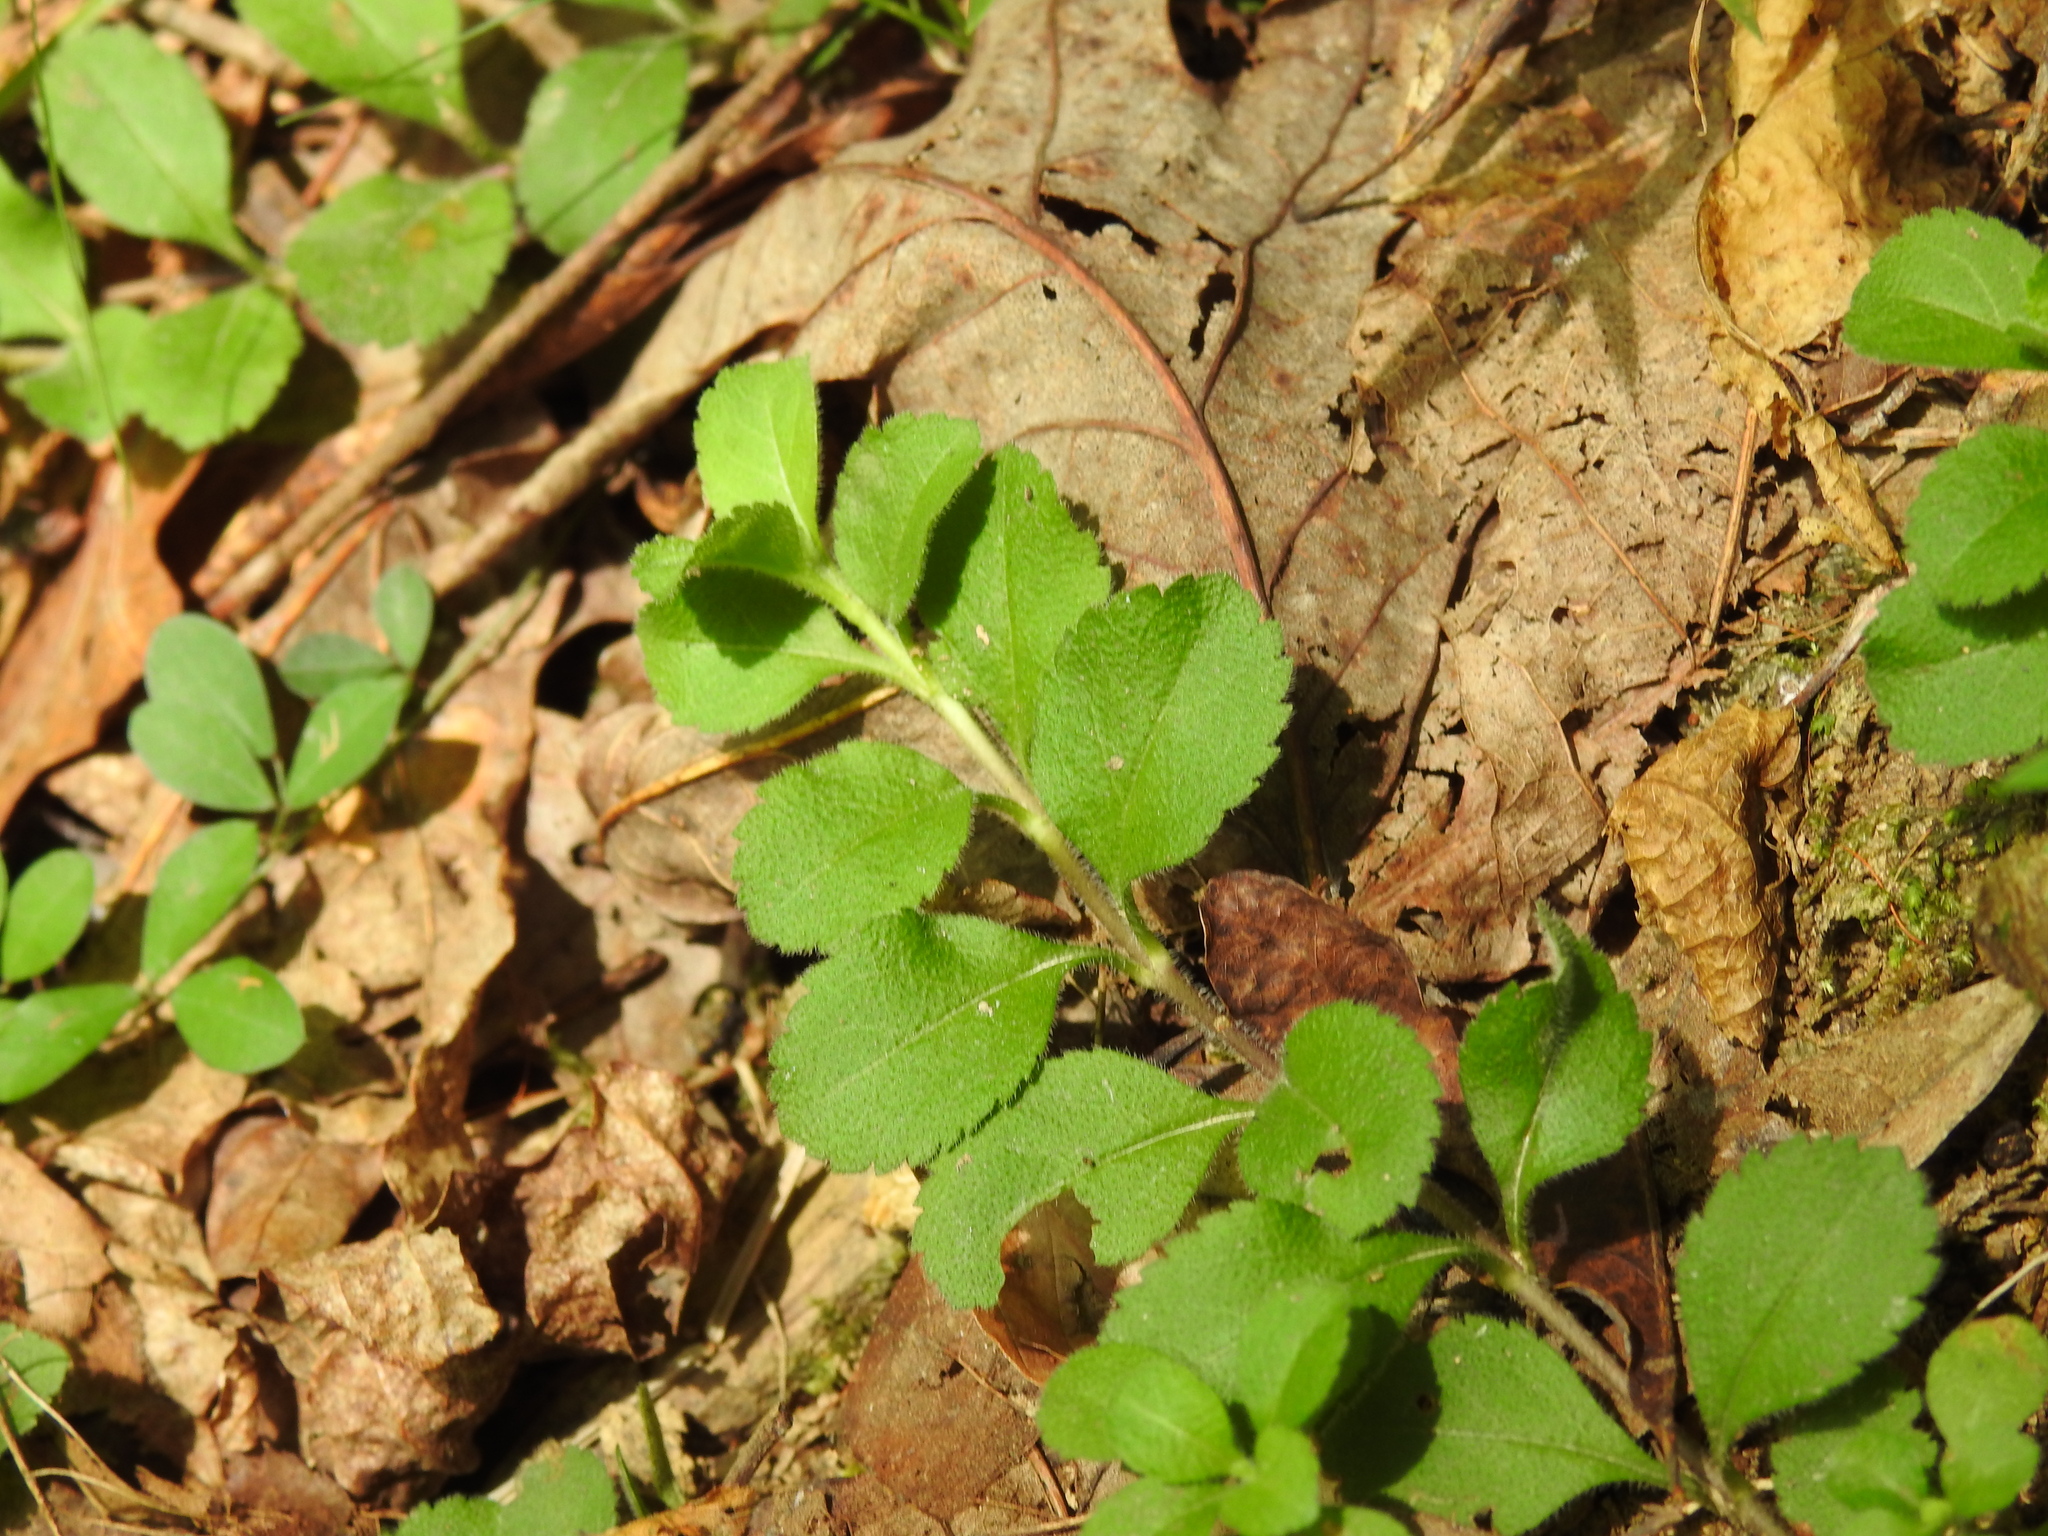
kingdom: Plantae
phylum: Tracheophyta
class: Magnoliopsida
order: Lamiales
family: Plantaginaceae
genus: Veronica
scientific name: Veronica officinalis
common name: Common speedwell
